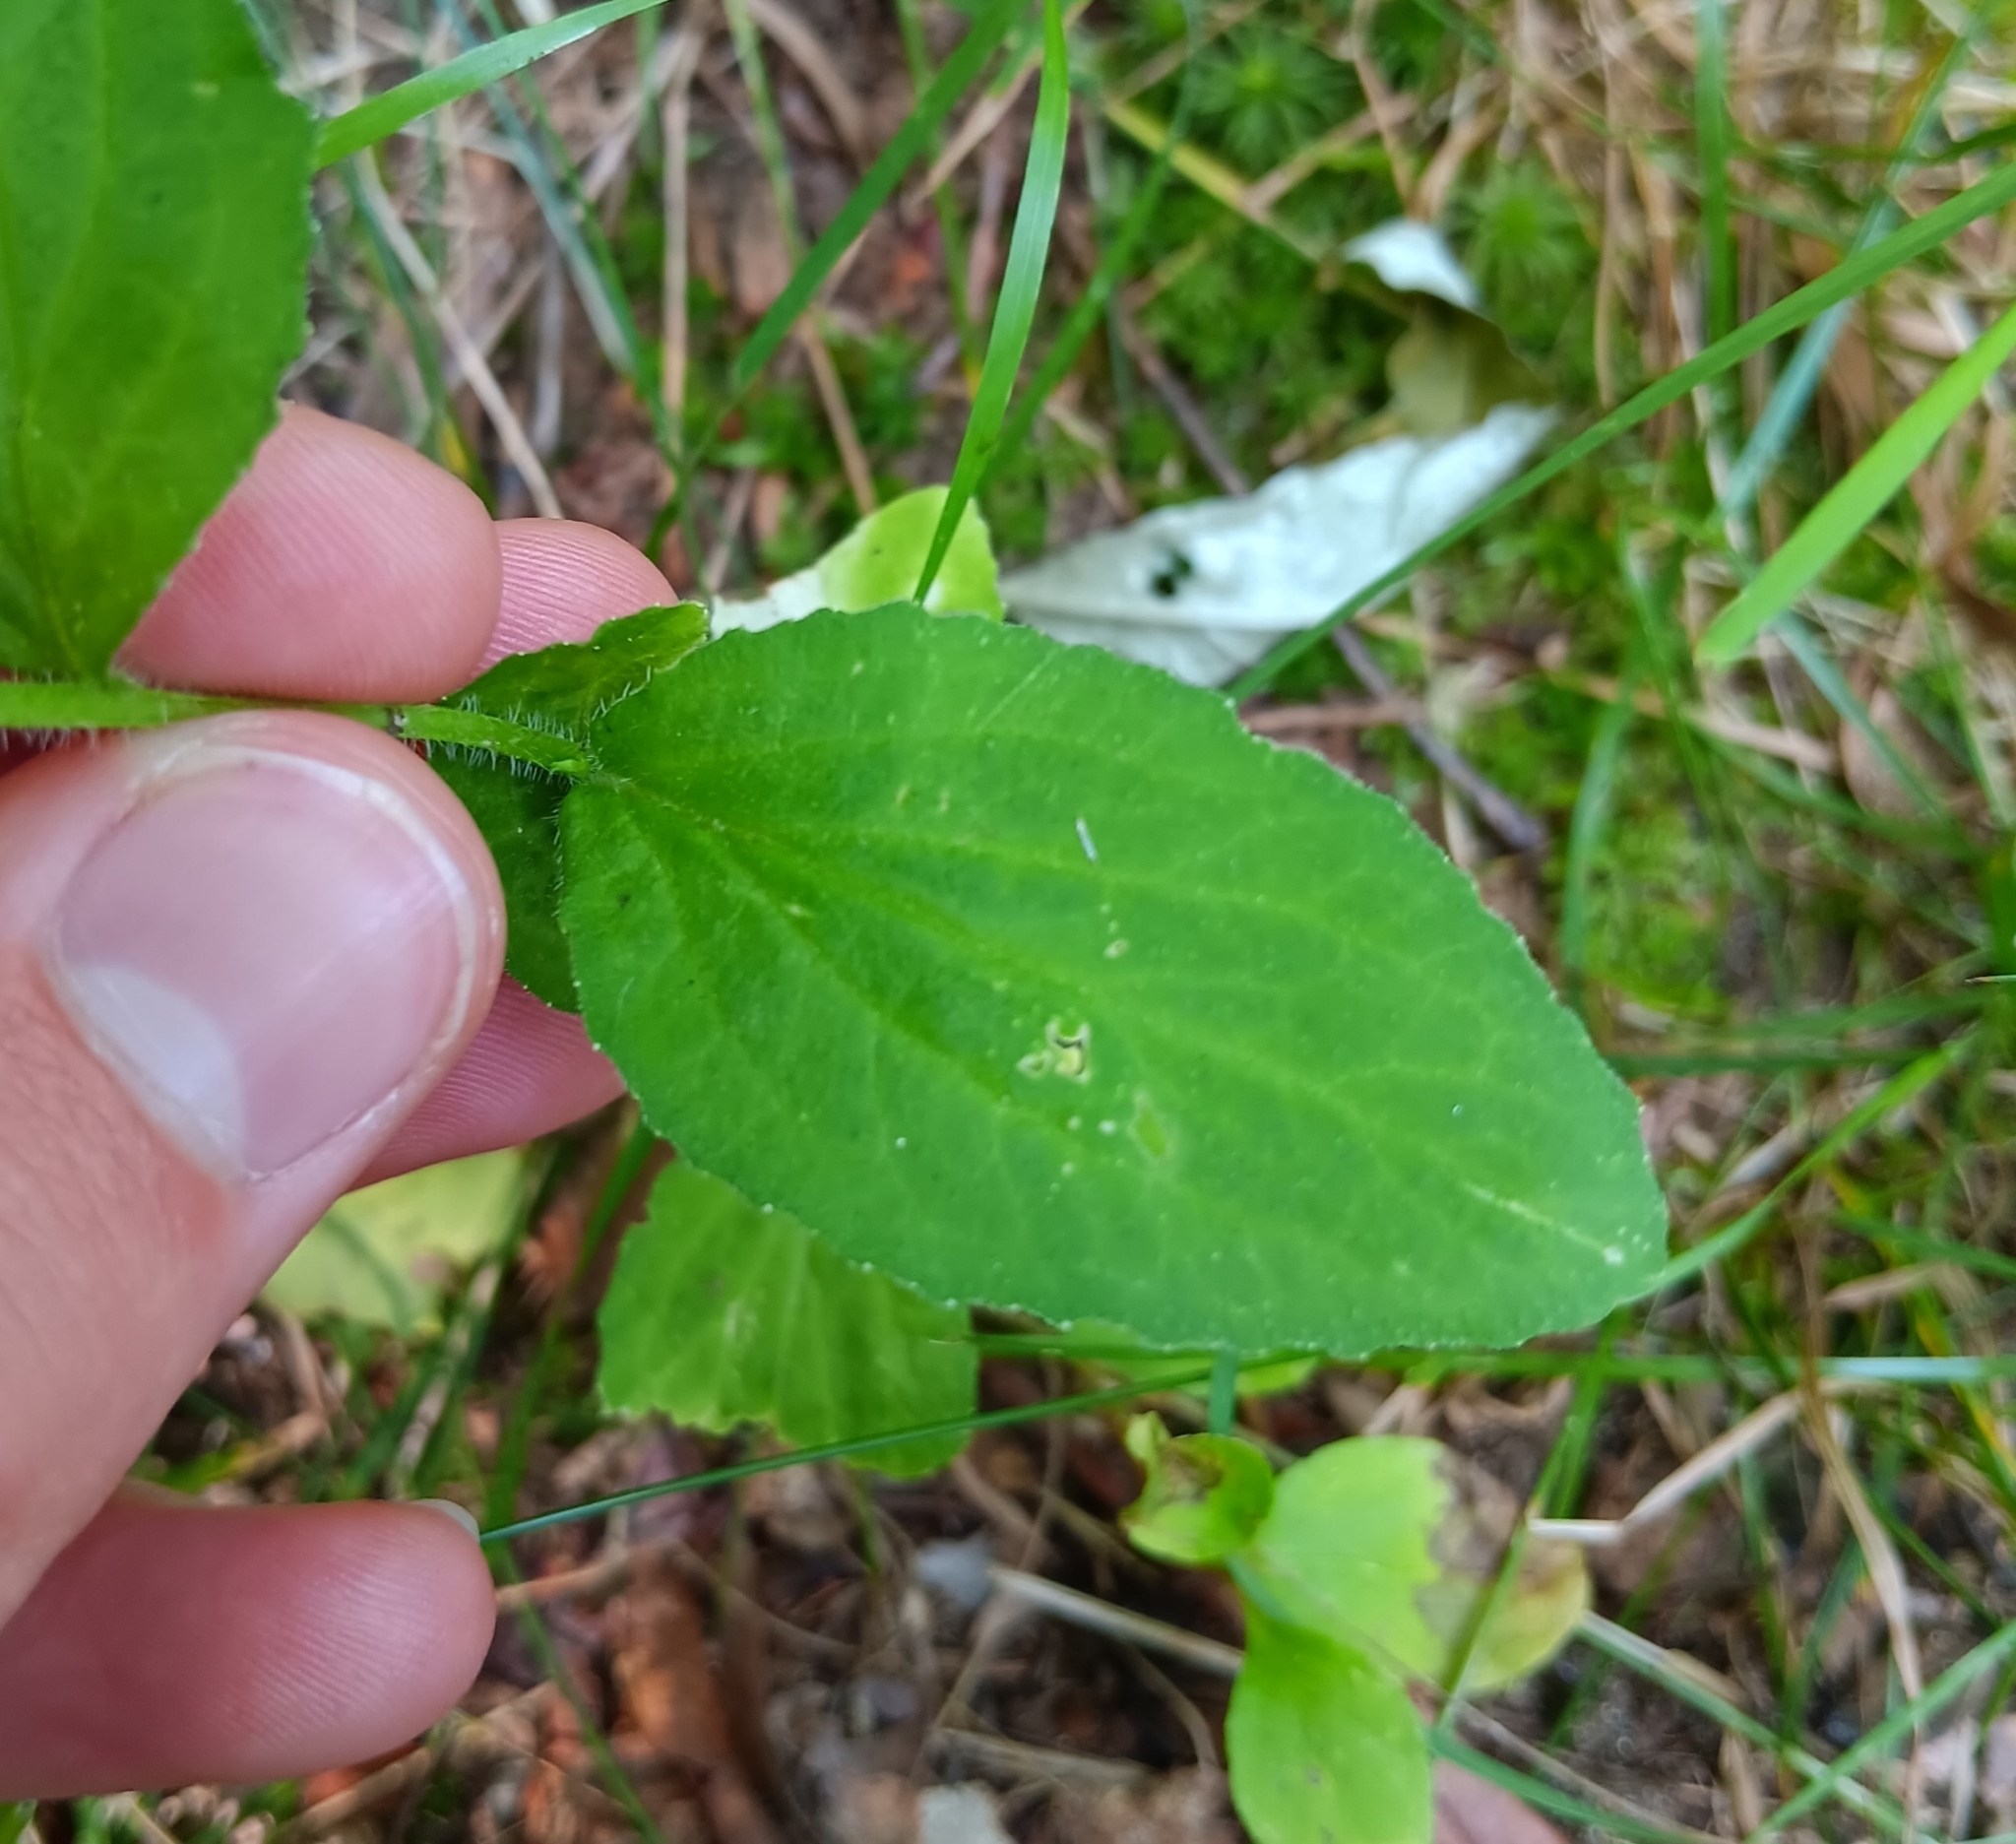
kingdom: Plantae
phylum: Tracheophyta
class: Magnoliopsida
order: Asterales
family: Campanulaceae
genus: Lobelia
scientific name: Lobelia inflata
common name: Indian tobacco
